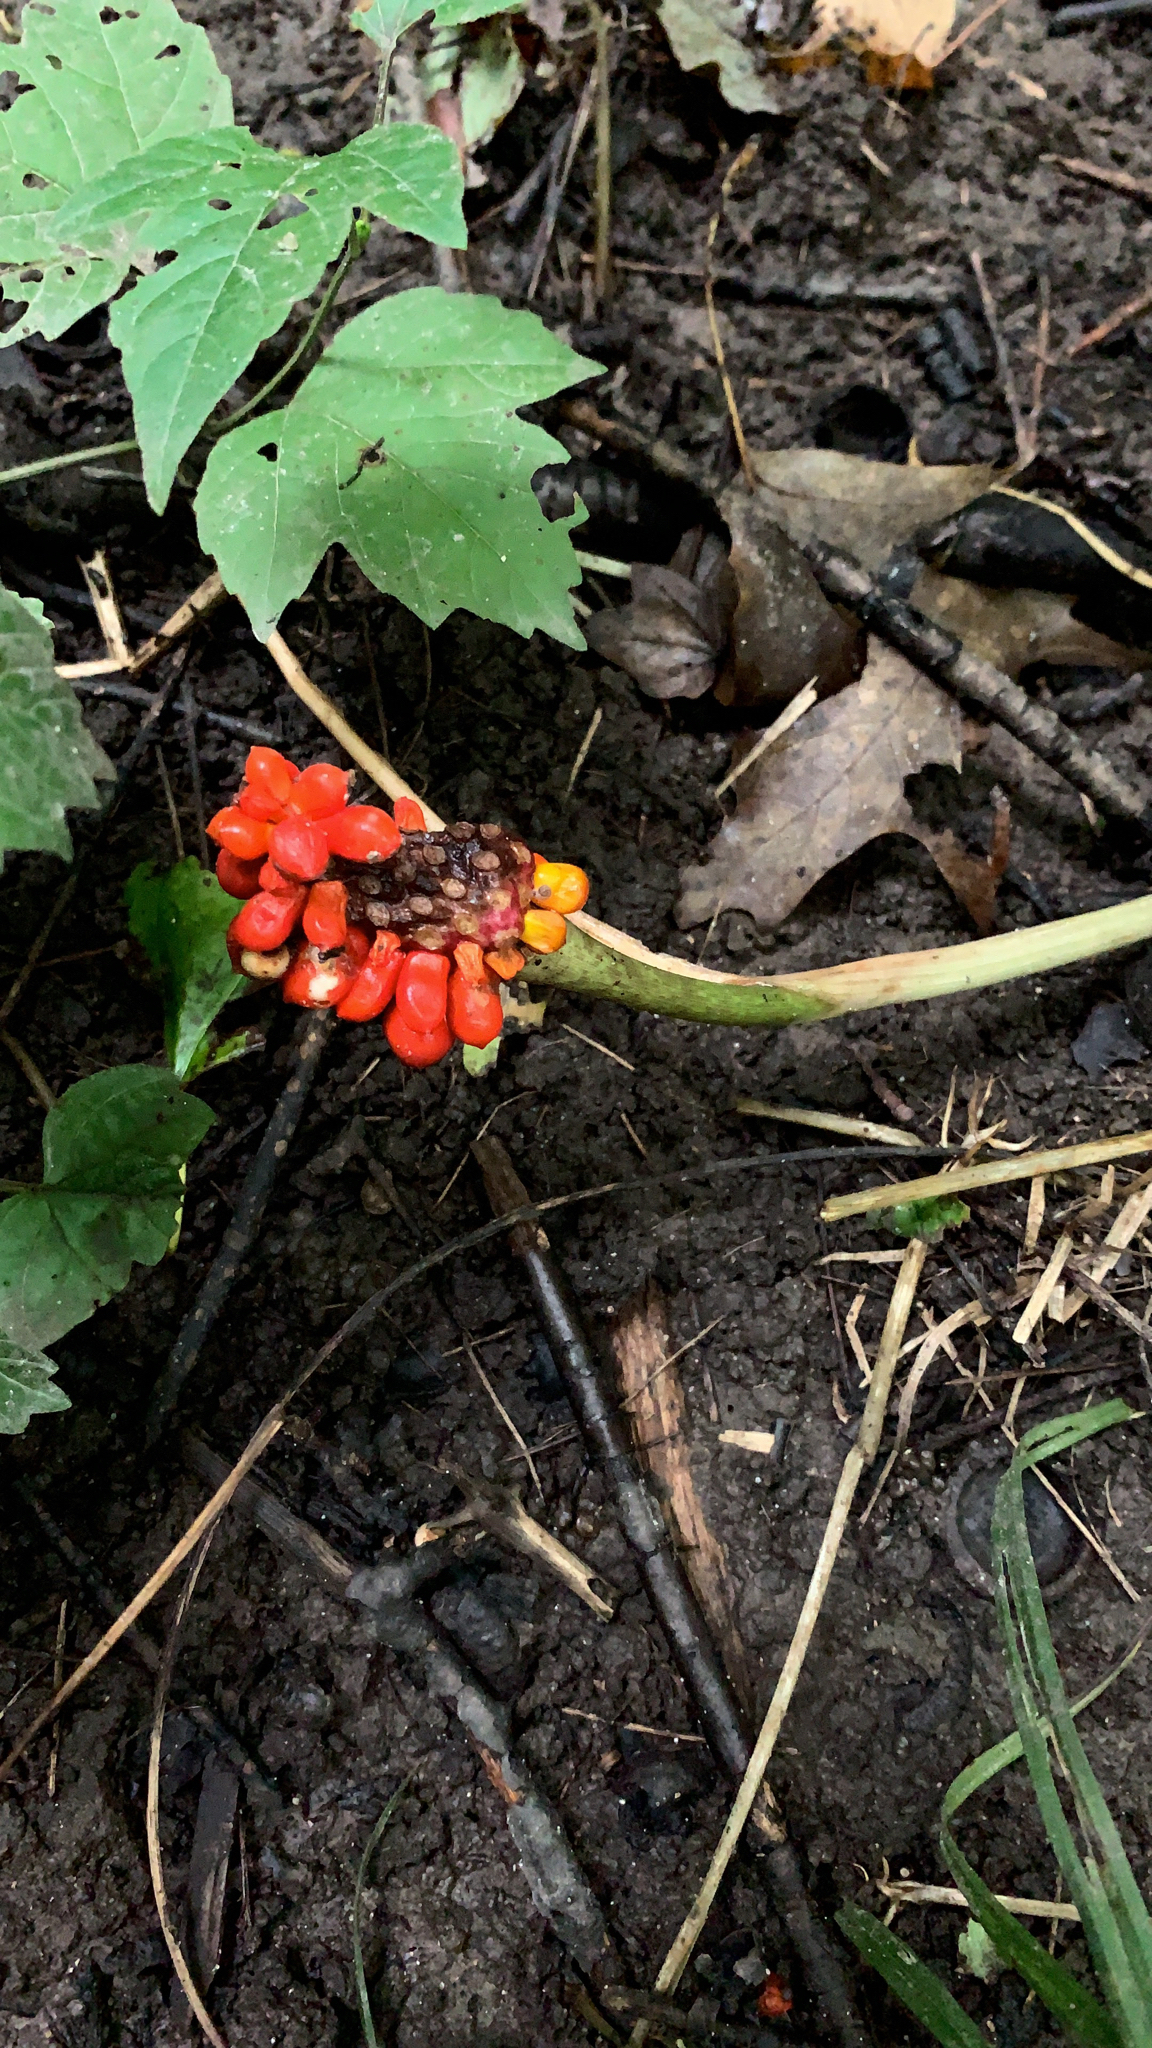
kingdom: Plantae
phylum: Tracheophyta
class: Liliopsida
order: Alismatales
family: Araceae
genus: Arisaema
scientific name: Arisaema triphyllum
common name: Jack-in-the-pulpit
